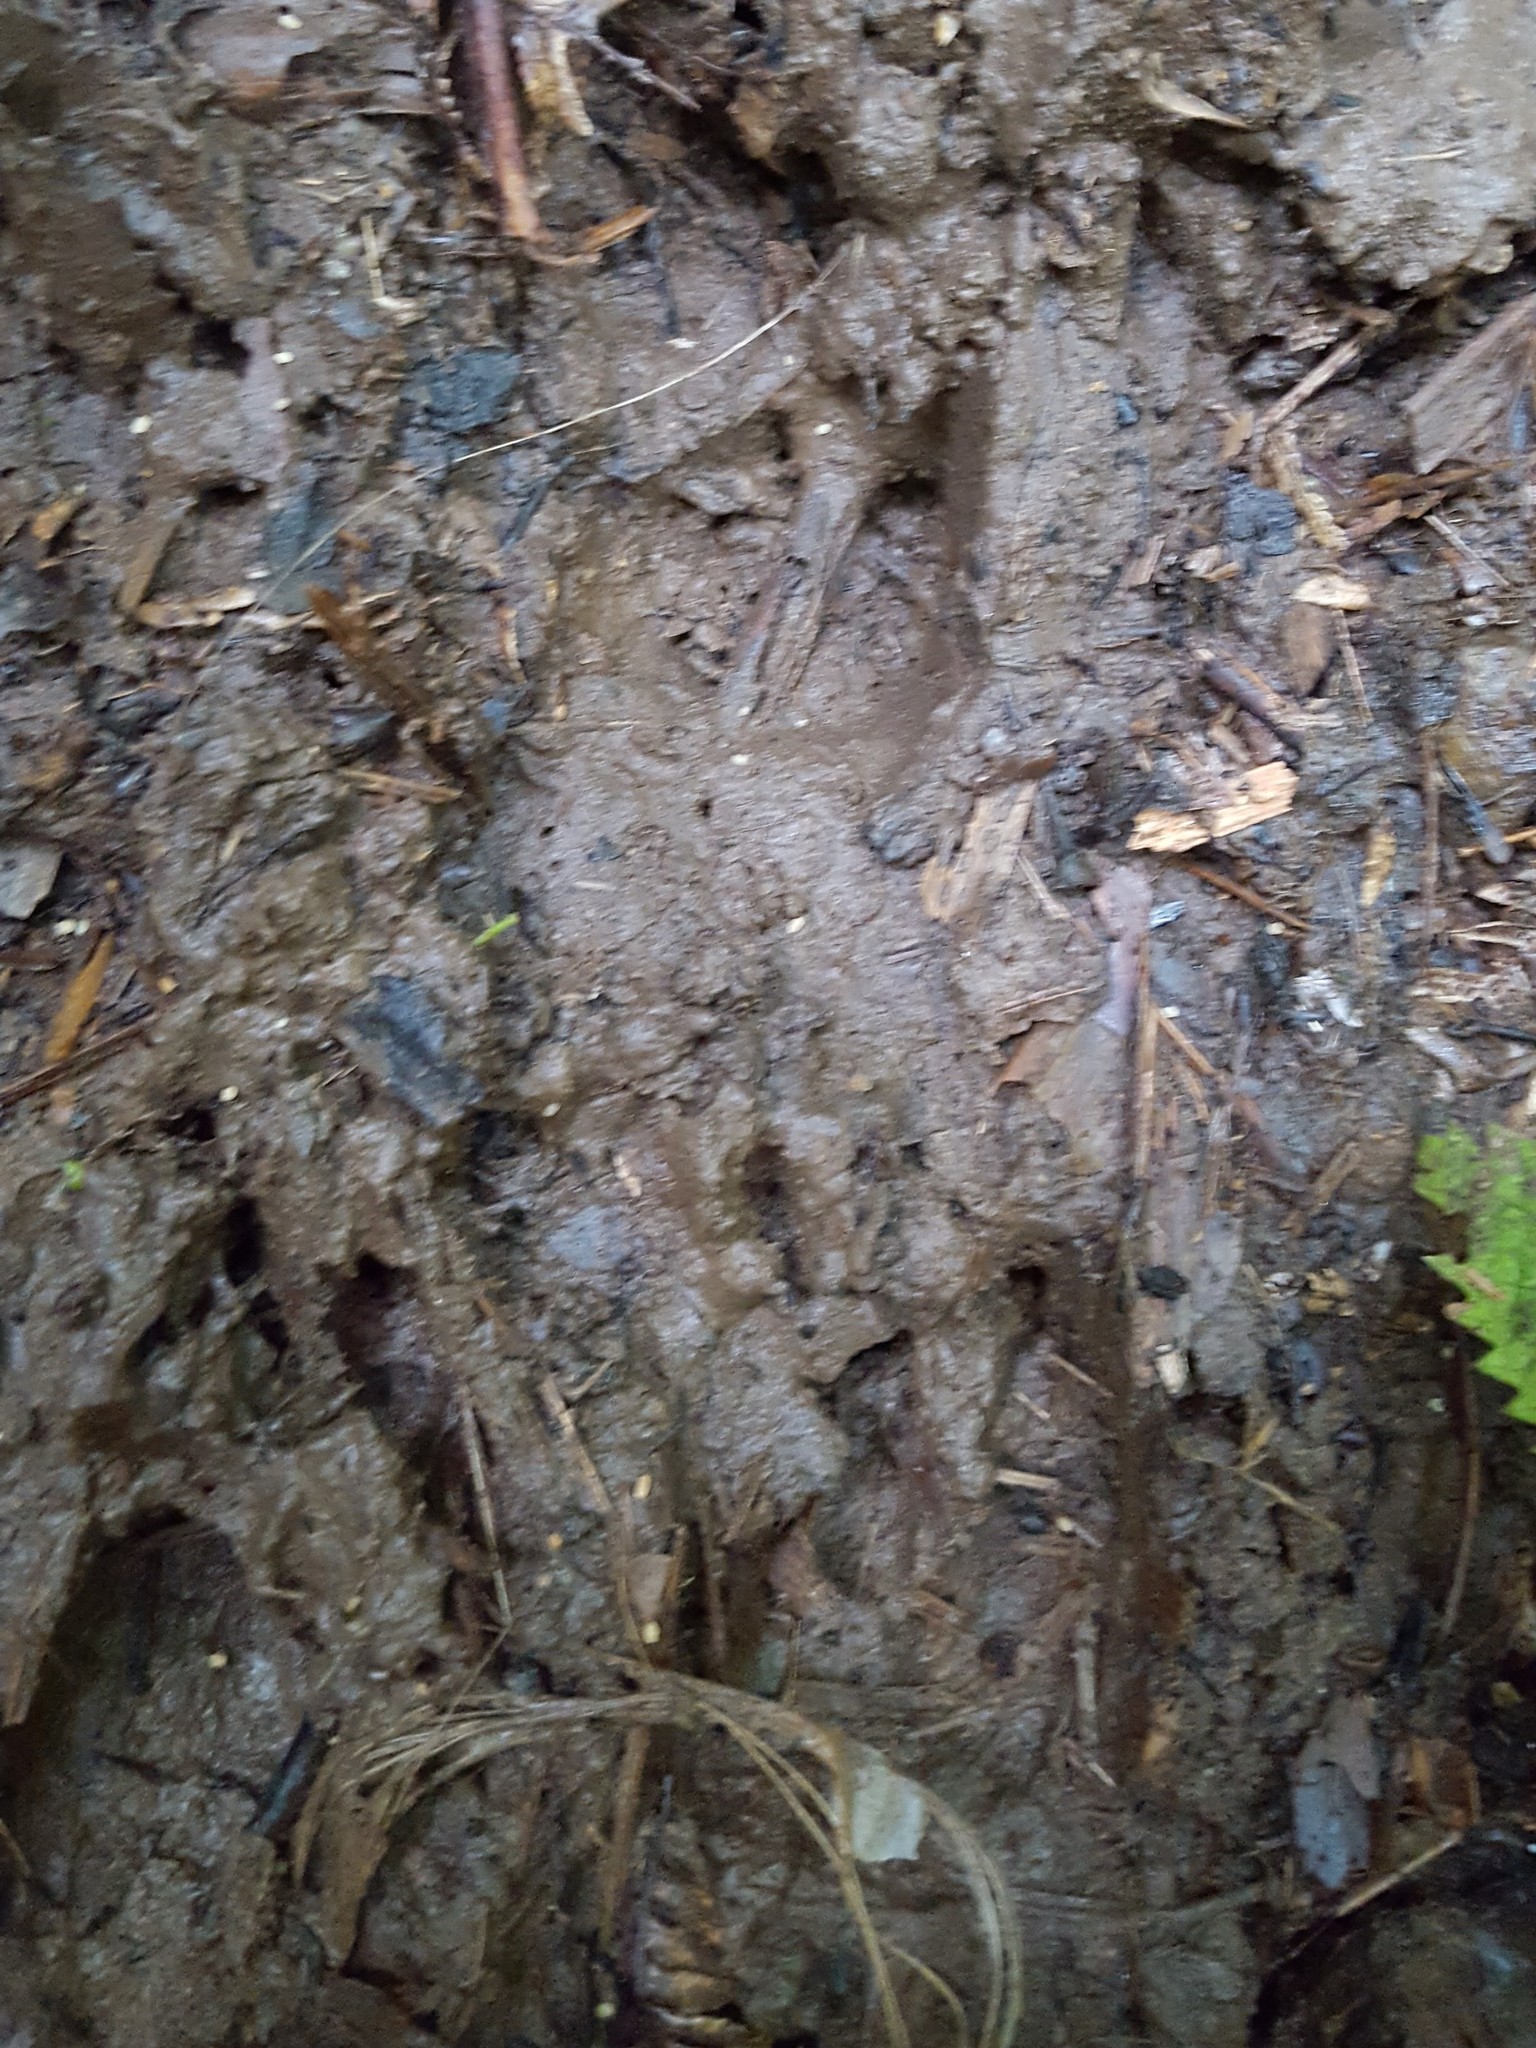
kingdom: Animalia
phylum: Chordata
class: Mammalia
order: Artiodactyla
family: Suidae
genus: Sus
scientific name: Sus scrofa
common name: Wild boar
